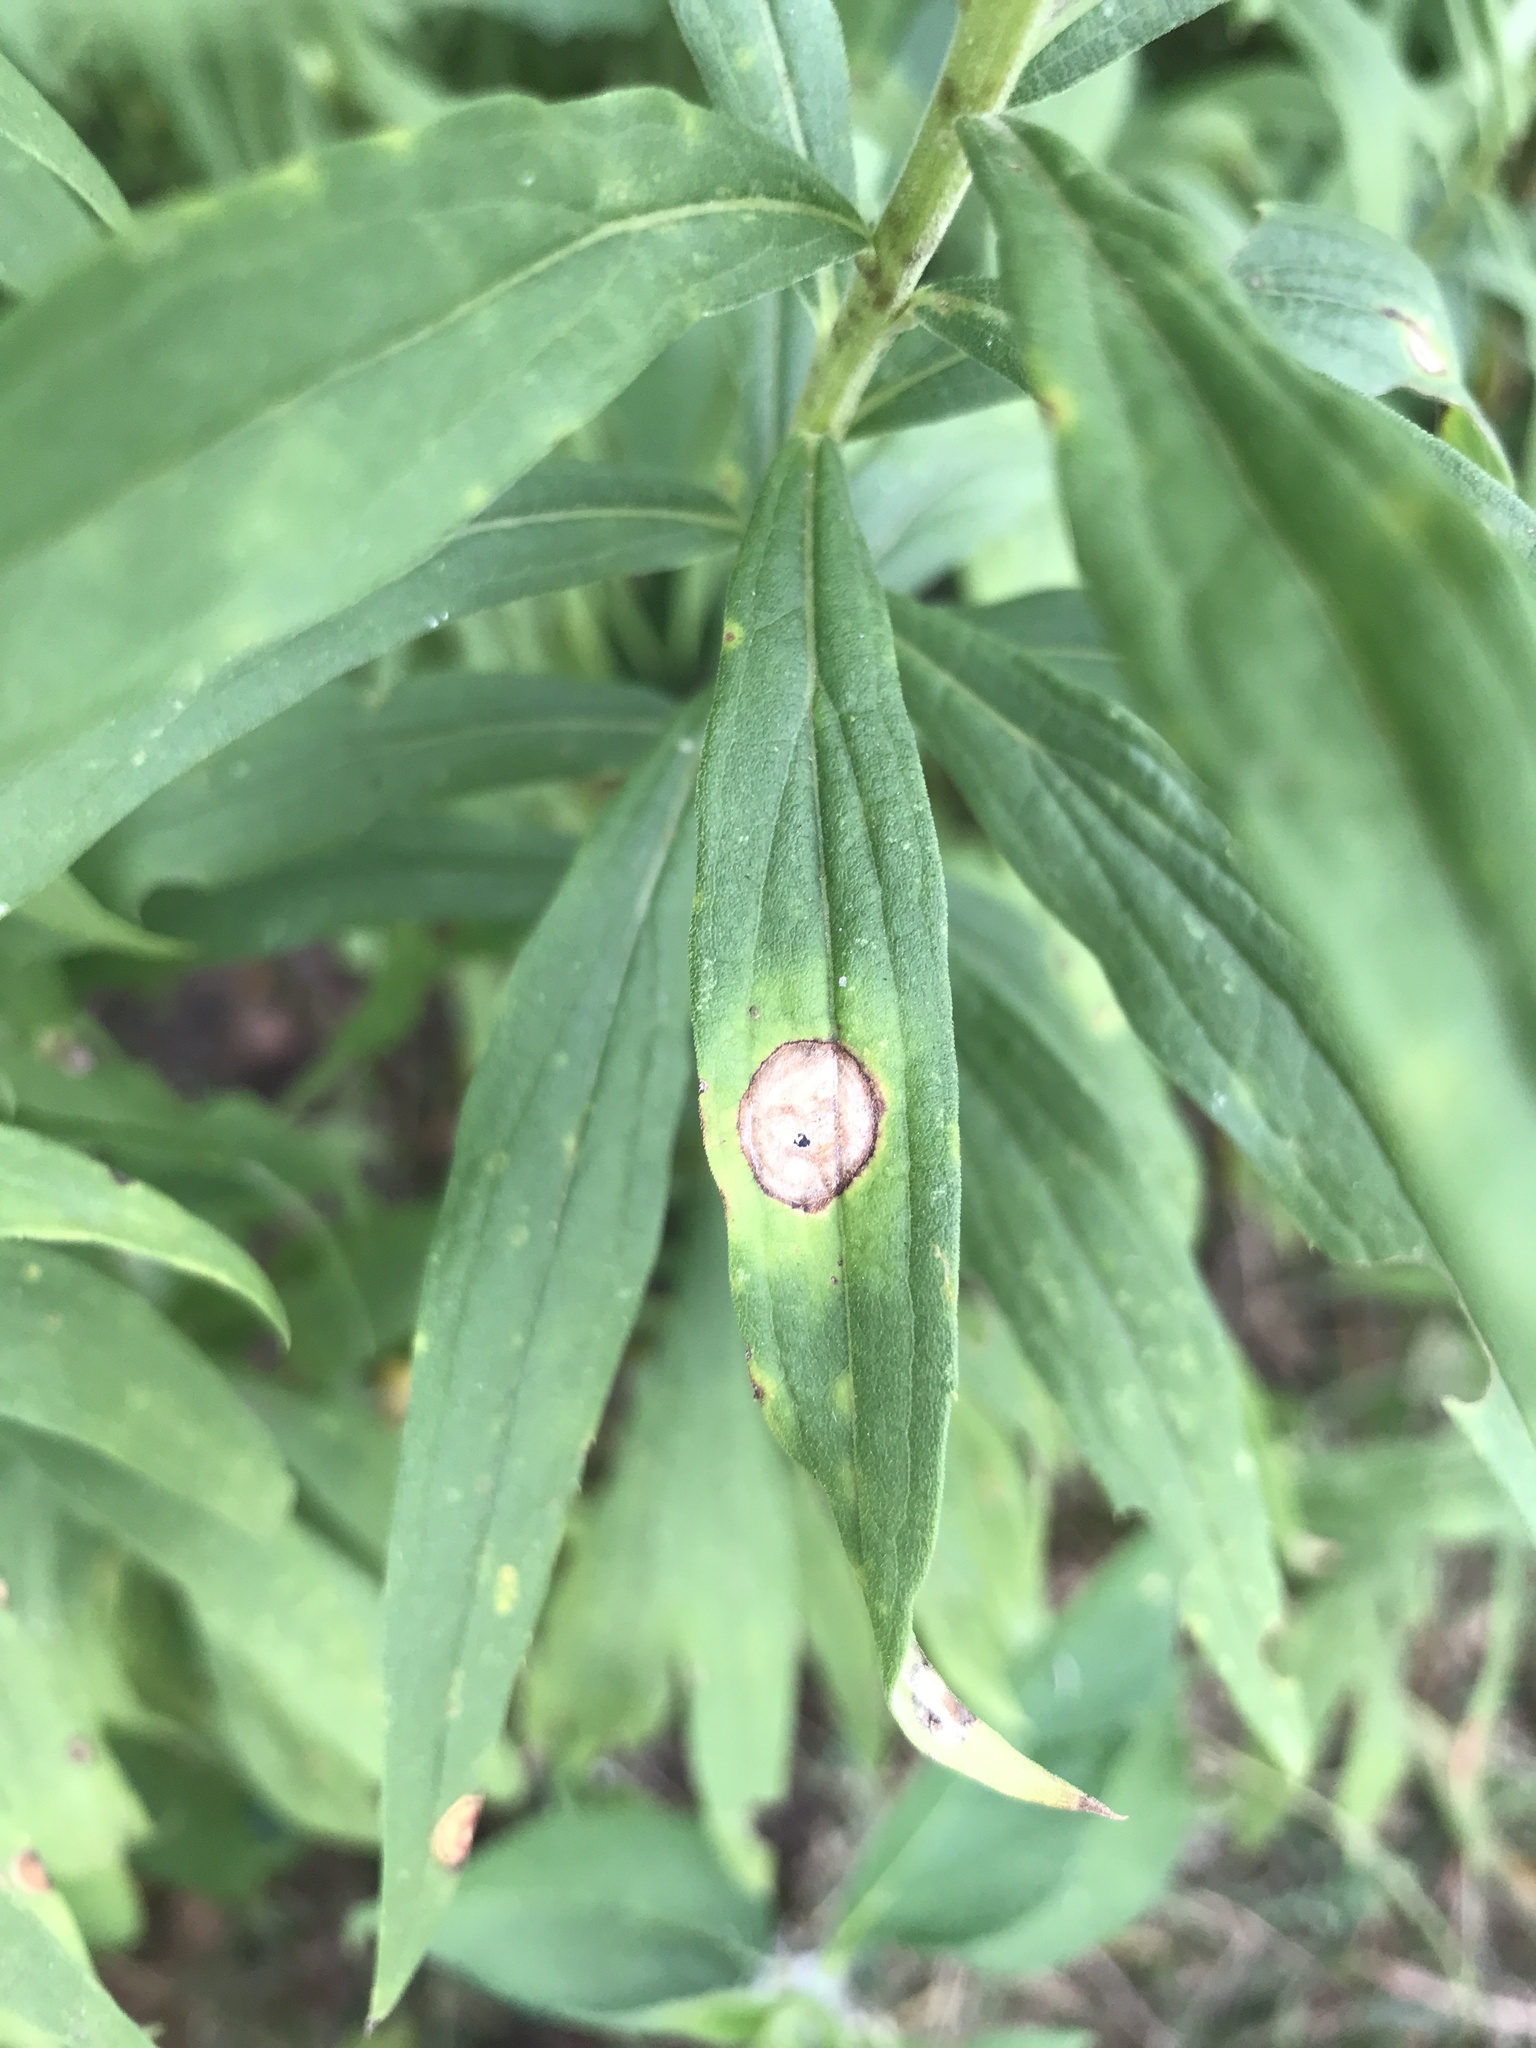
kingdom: Animalia
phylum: Arthropoda
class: Insecta
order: Diptera
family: Cecidomyiidae
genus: Asteromyia
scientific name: Asteromyia carbonifera
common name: Carbonifera goldenrod gall midge
